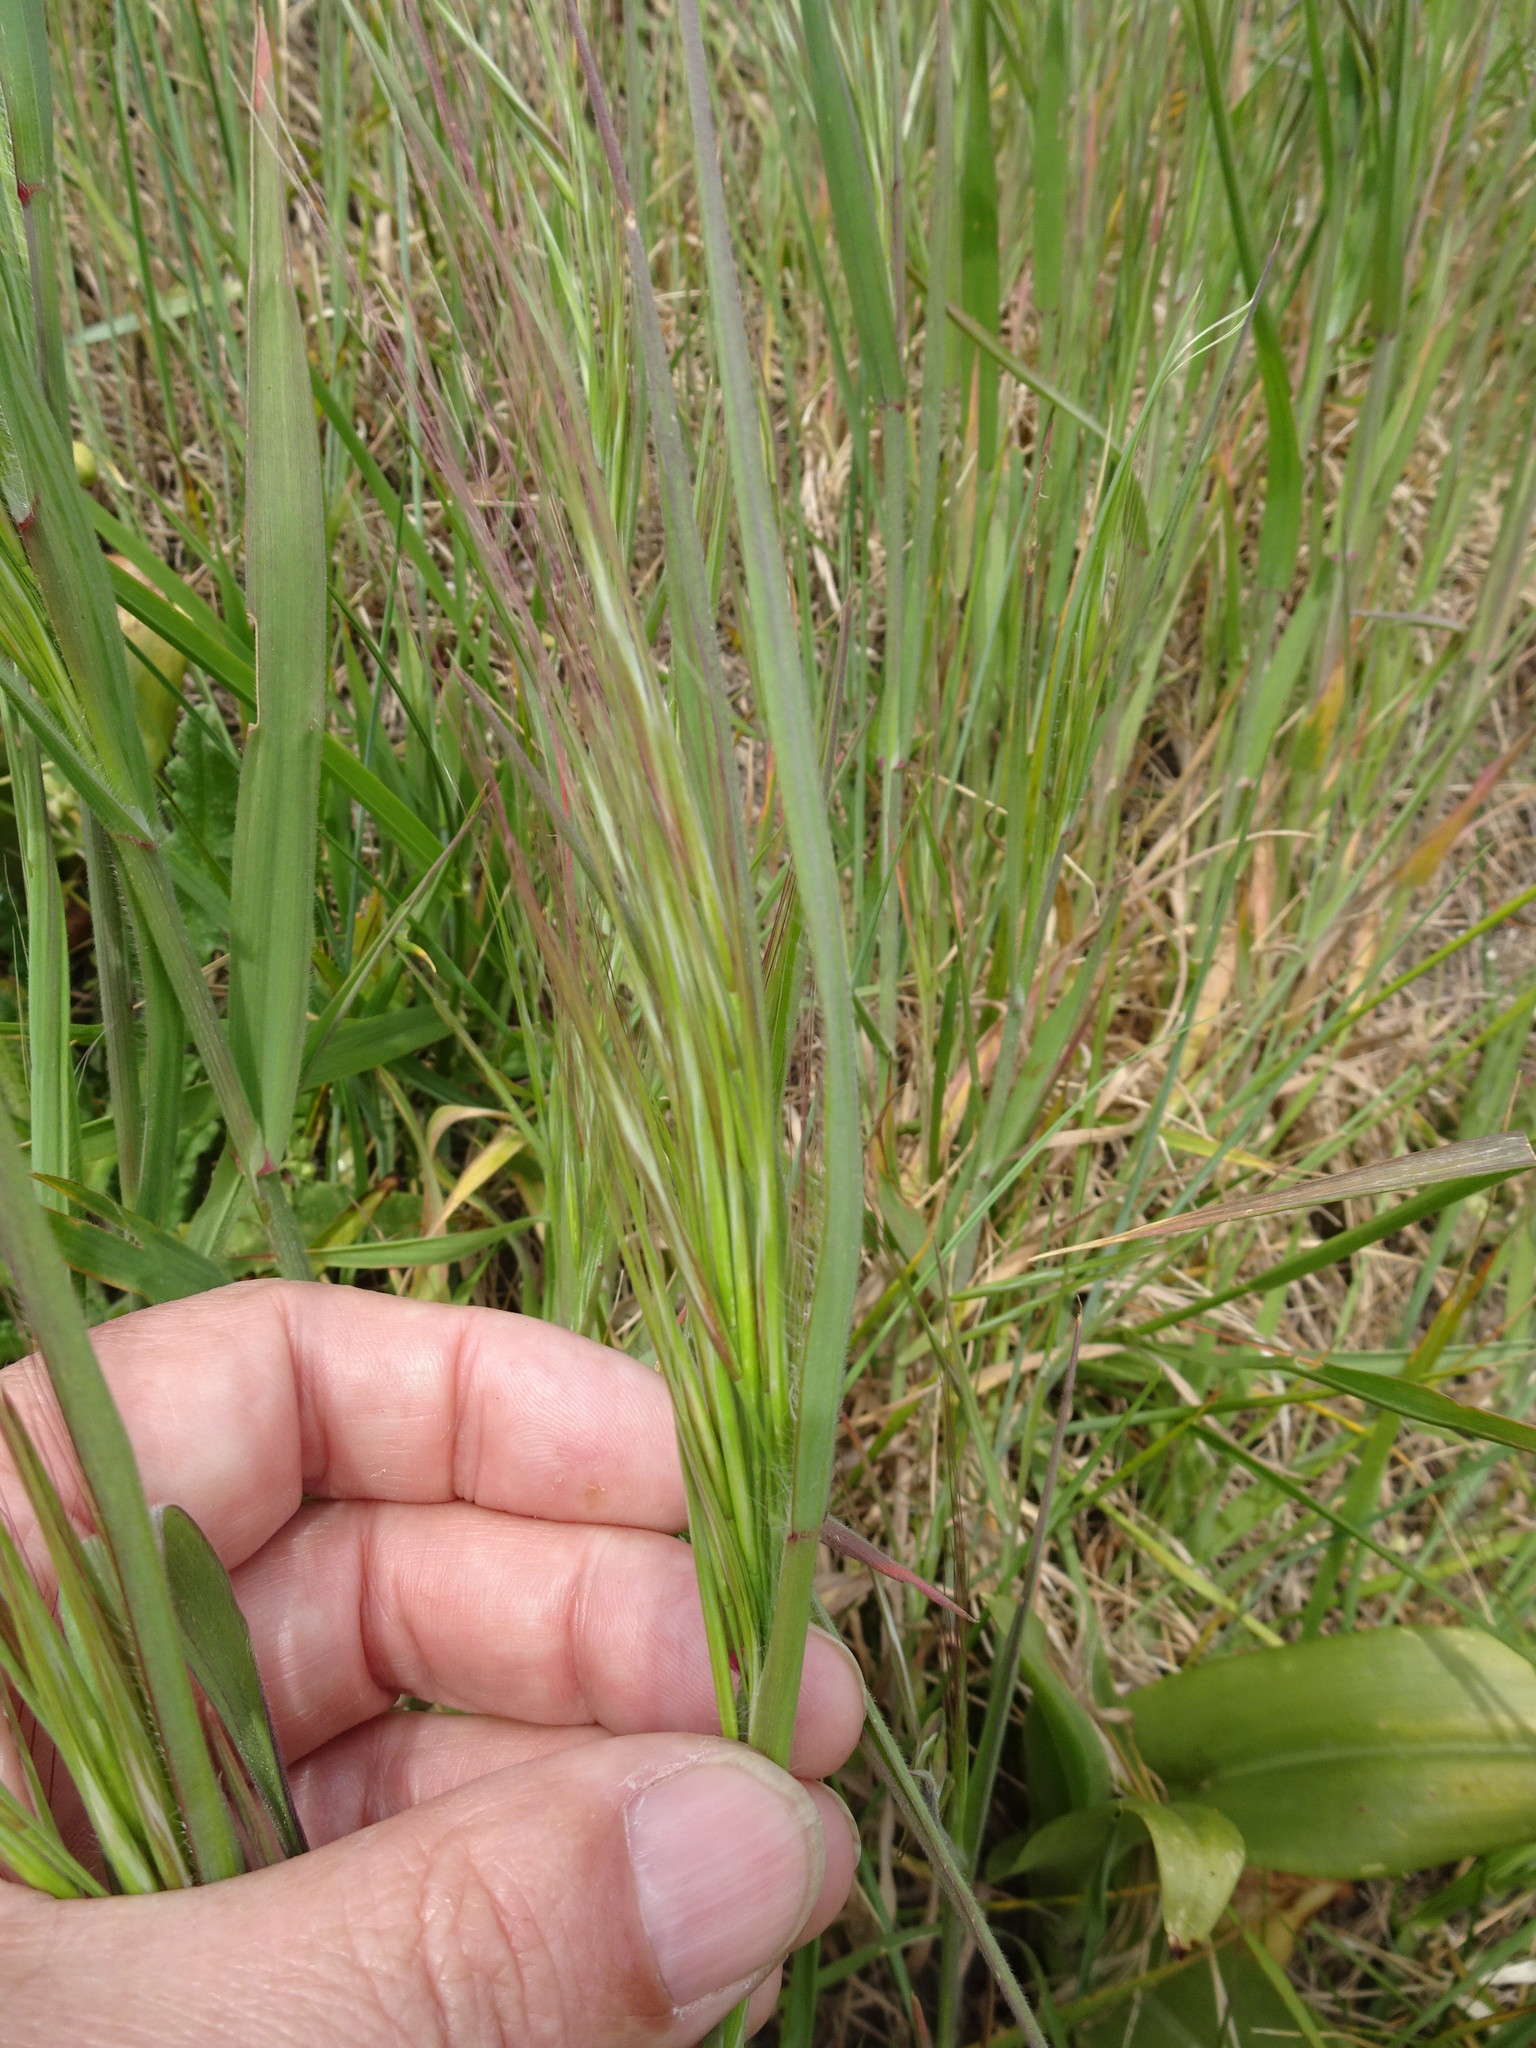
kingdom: Plantae
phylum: Tracheophyta
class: Liliopsida
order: Poales
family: Poaceae
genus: Bromus
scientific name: Bromus diandrus
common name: Ripgut brome
